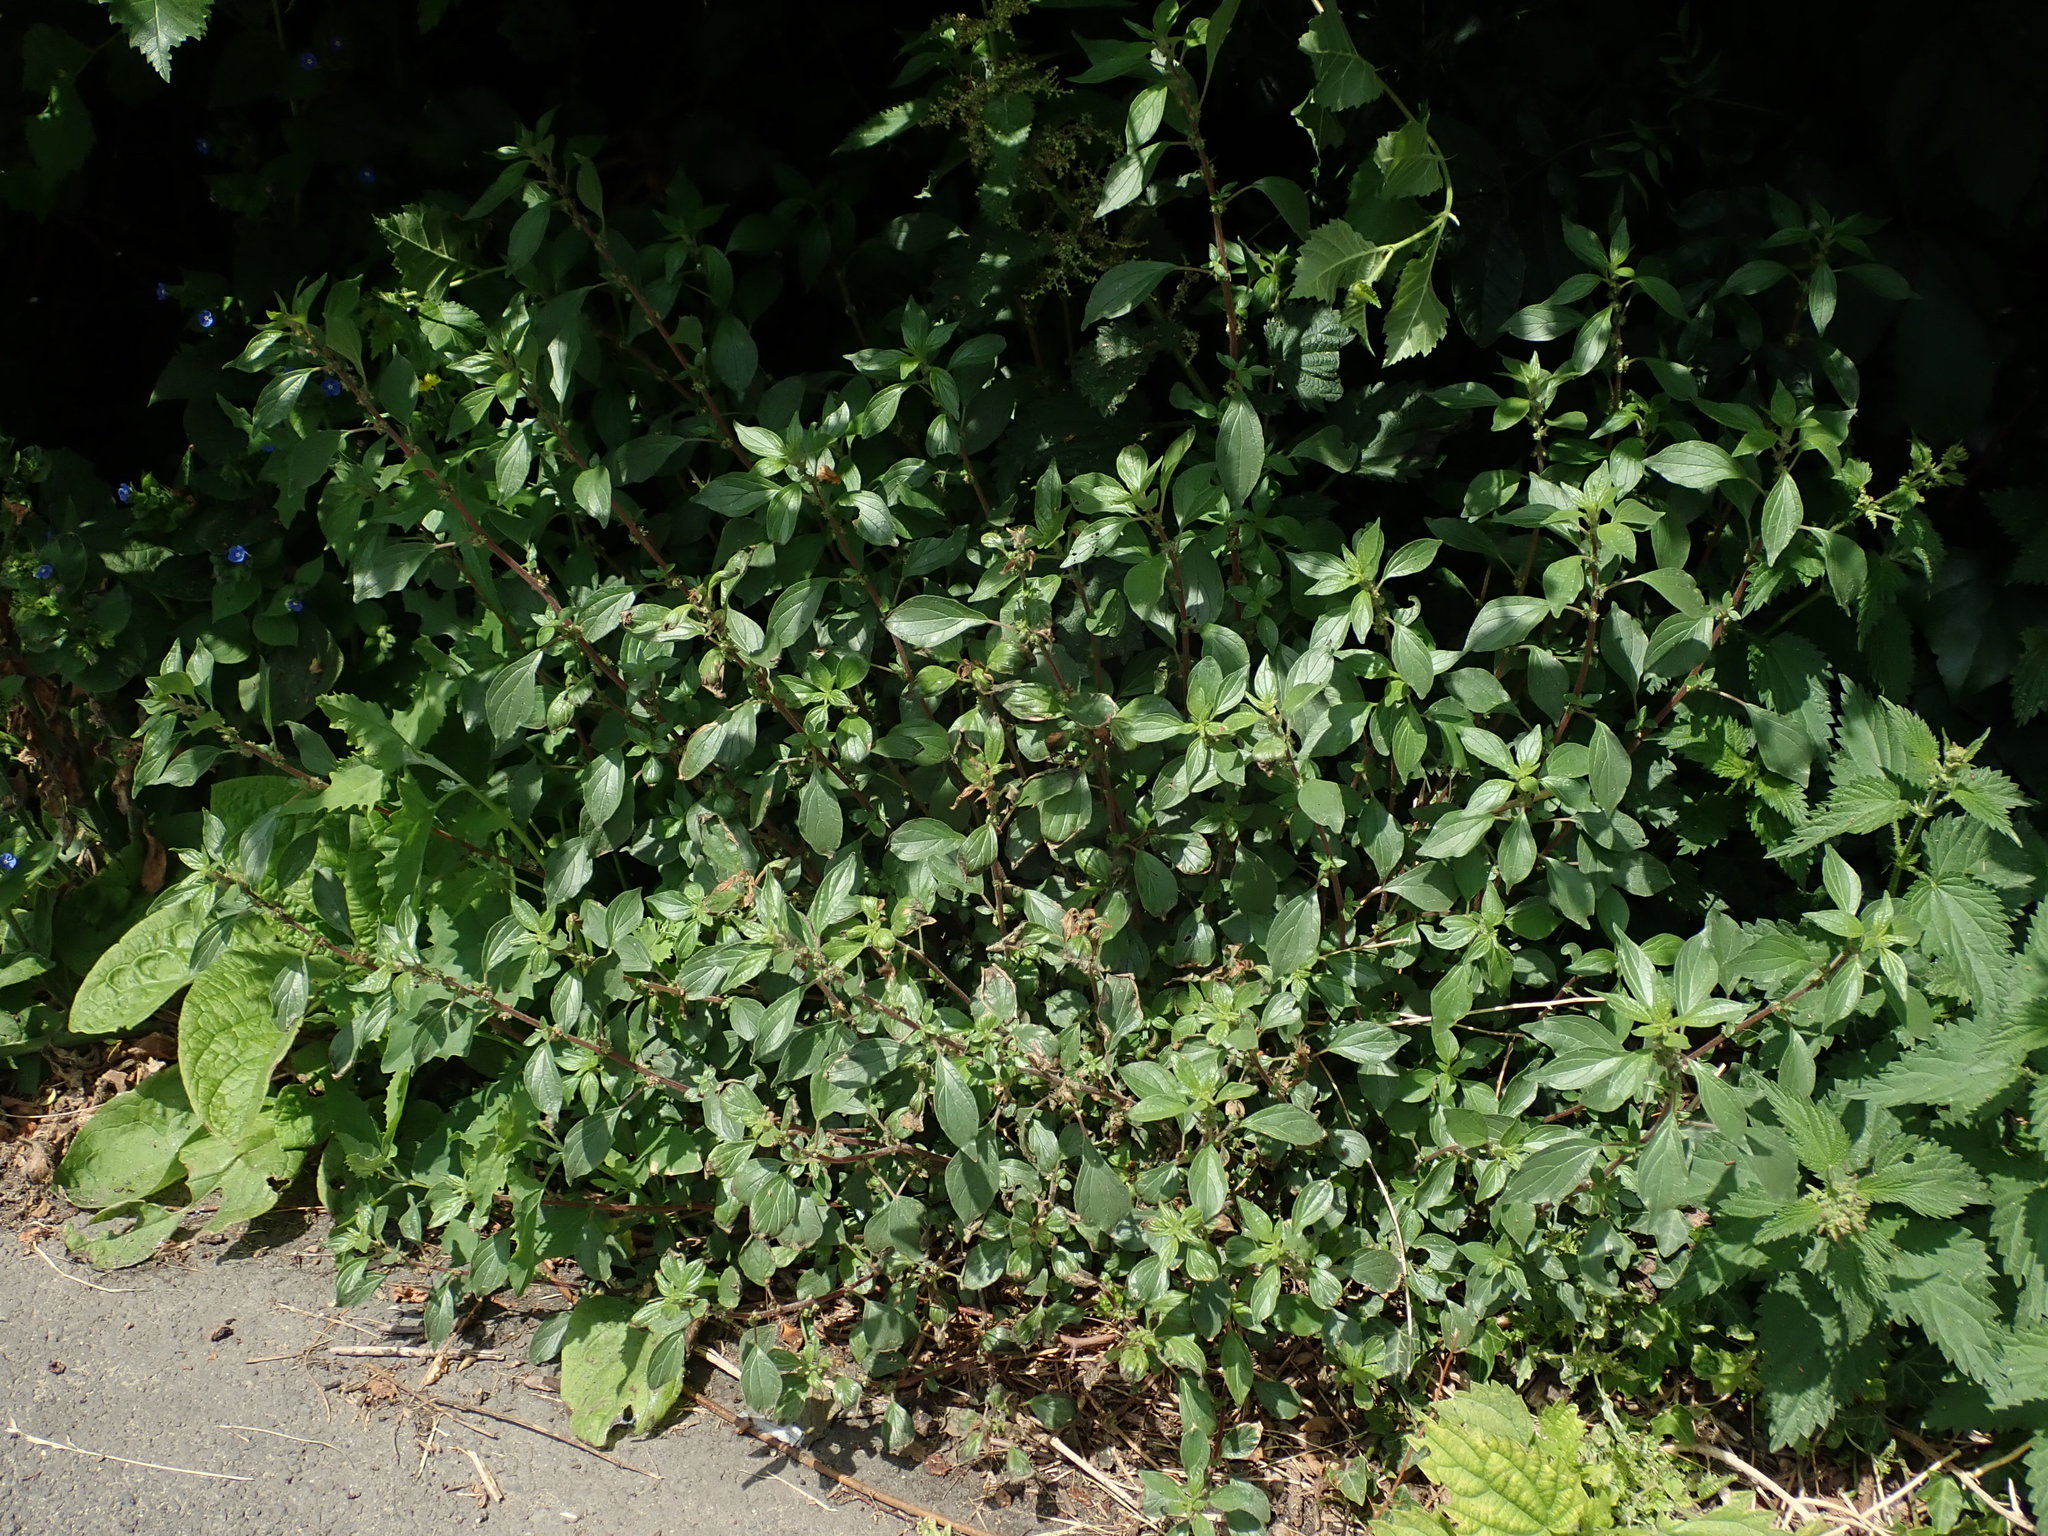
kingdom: Plantae
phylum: Tracheophyta
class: Magnoliopsida
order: Rosales
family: Urticaceae
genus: Parietaria
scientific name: Parietaria judaica
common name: Pellitory-of-the-wall
